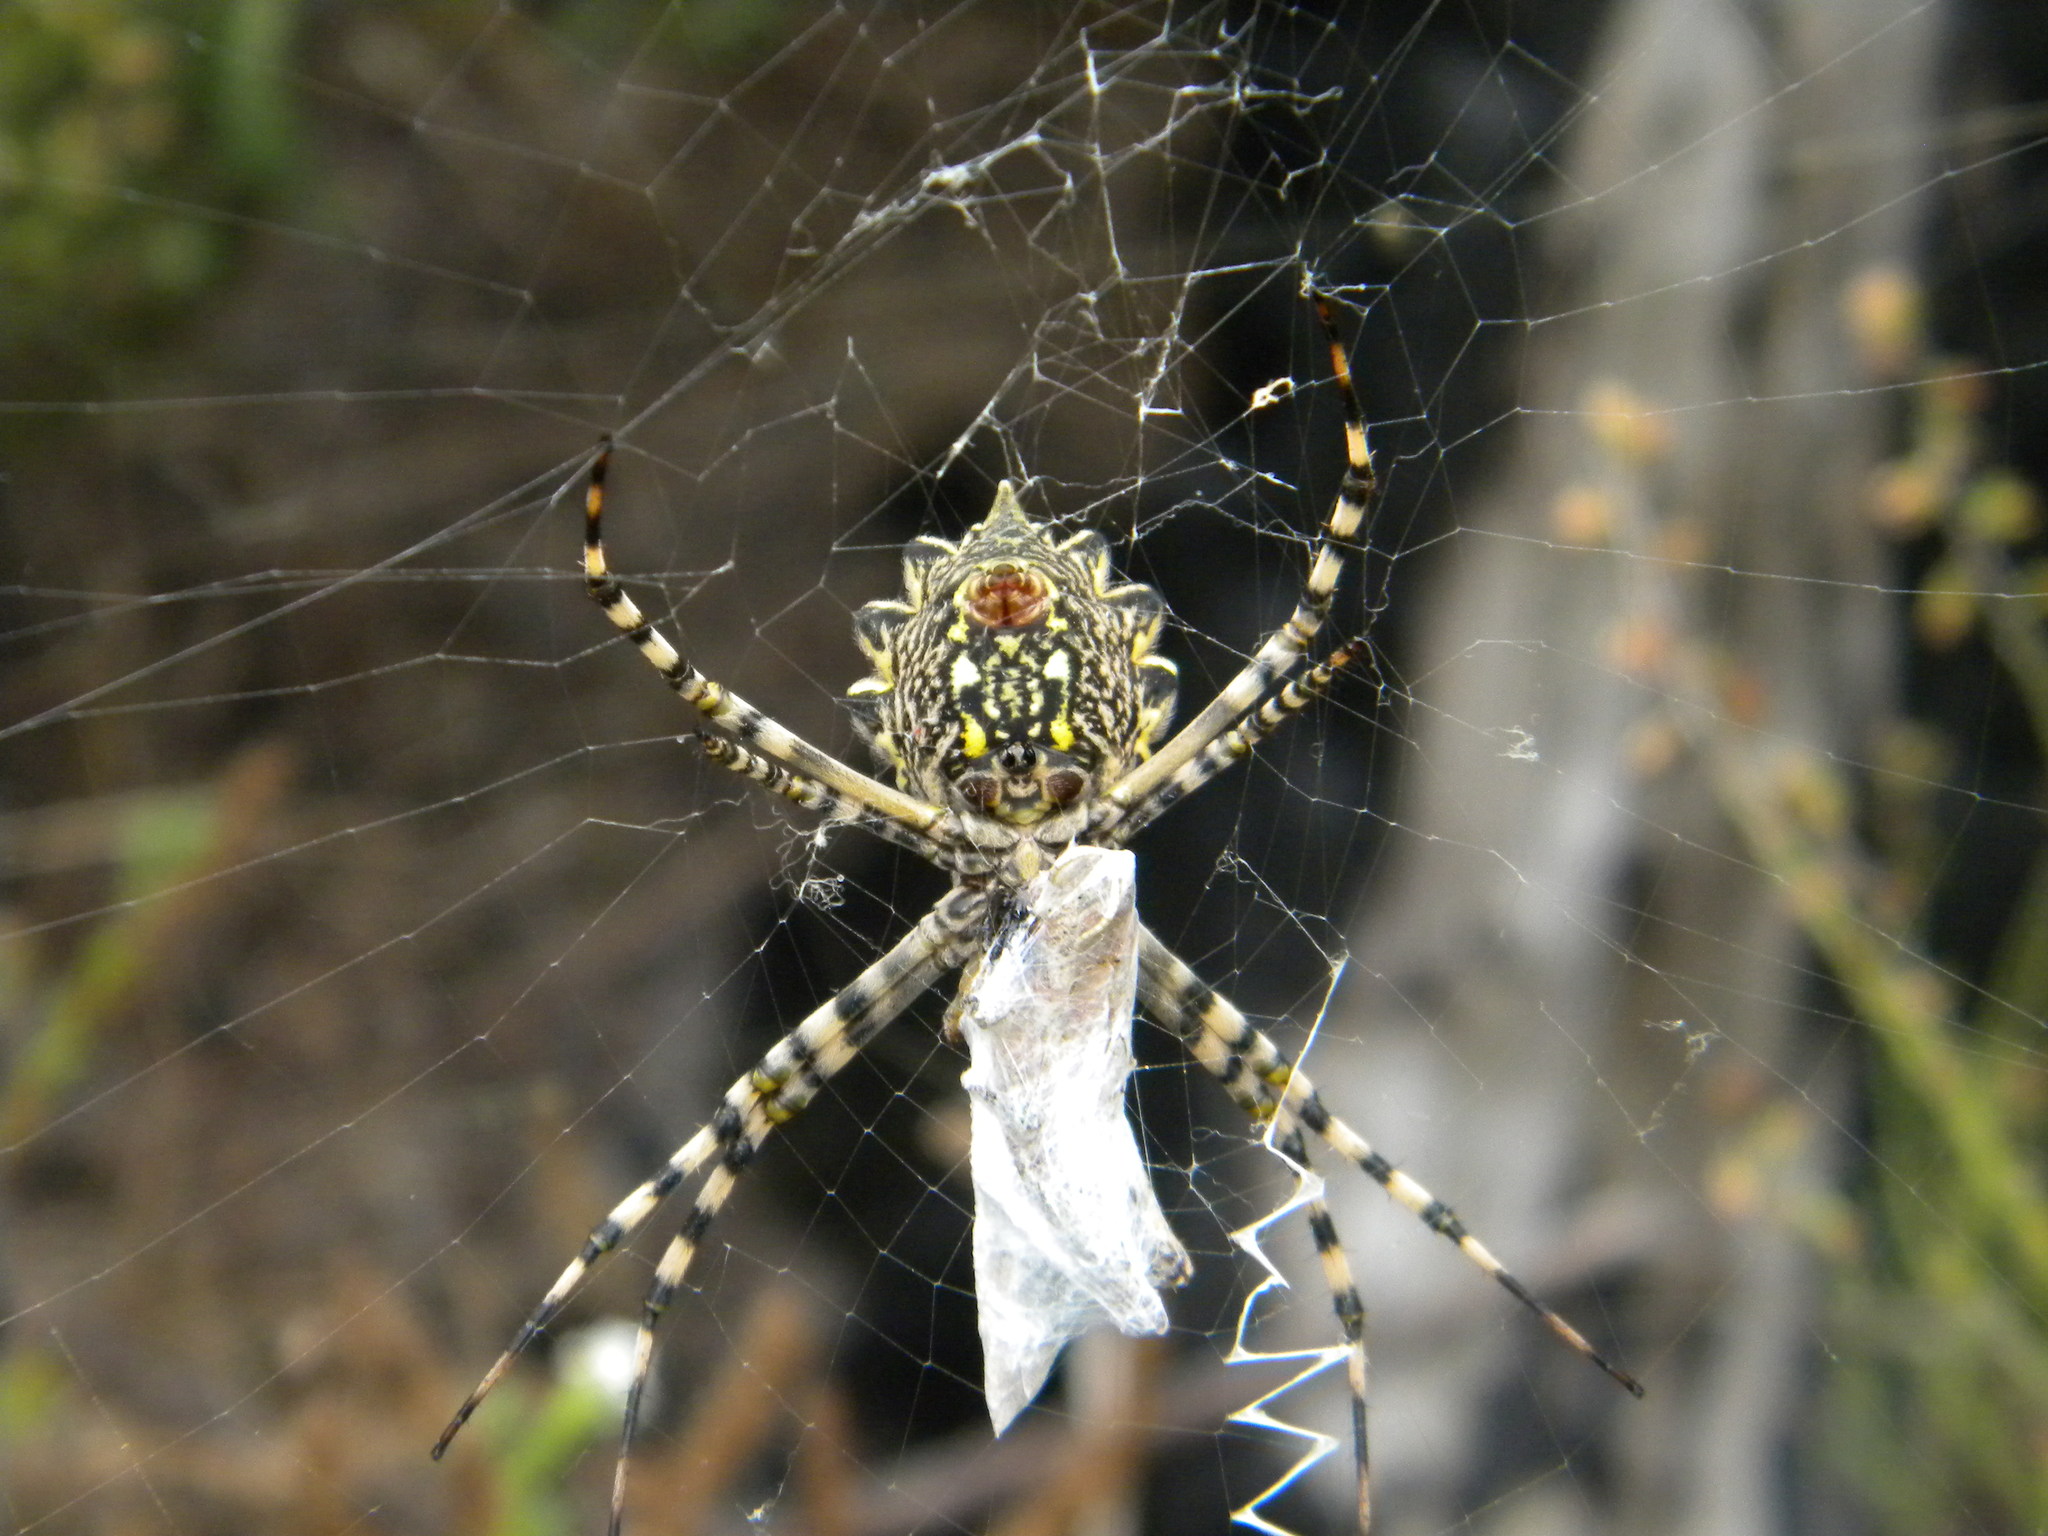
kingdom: Animalia
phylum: Arthropoda
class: Arachnida
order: Araneae
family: Araneidae
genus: Argiope
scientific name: Argiope australis
